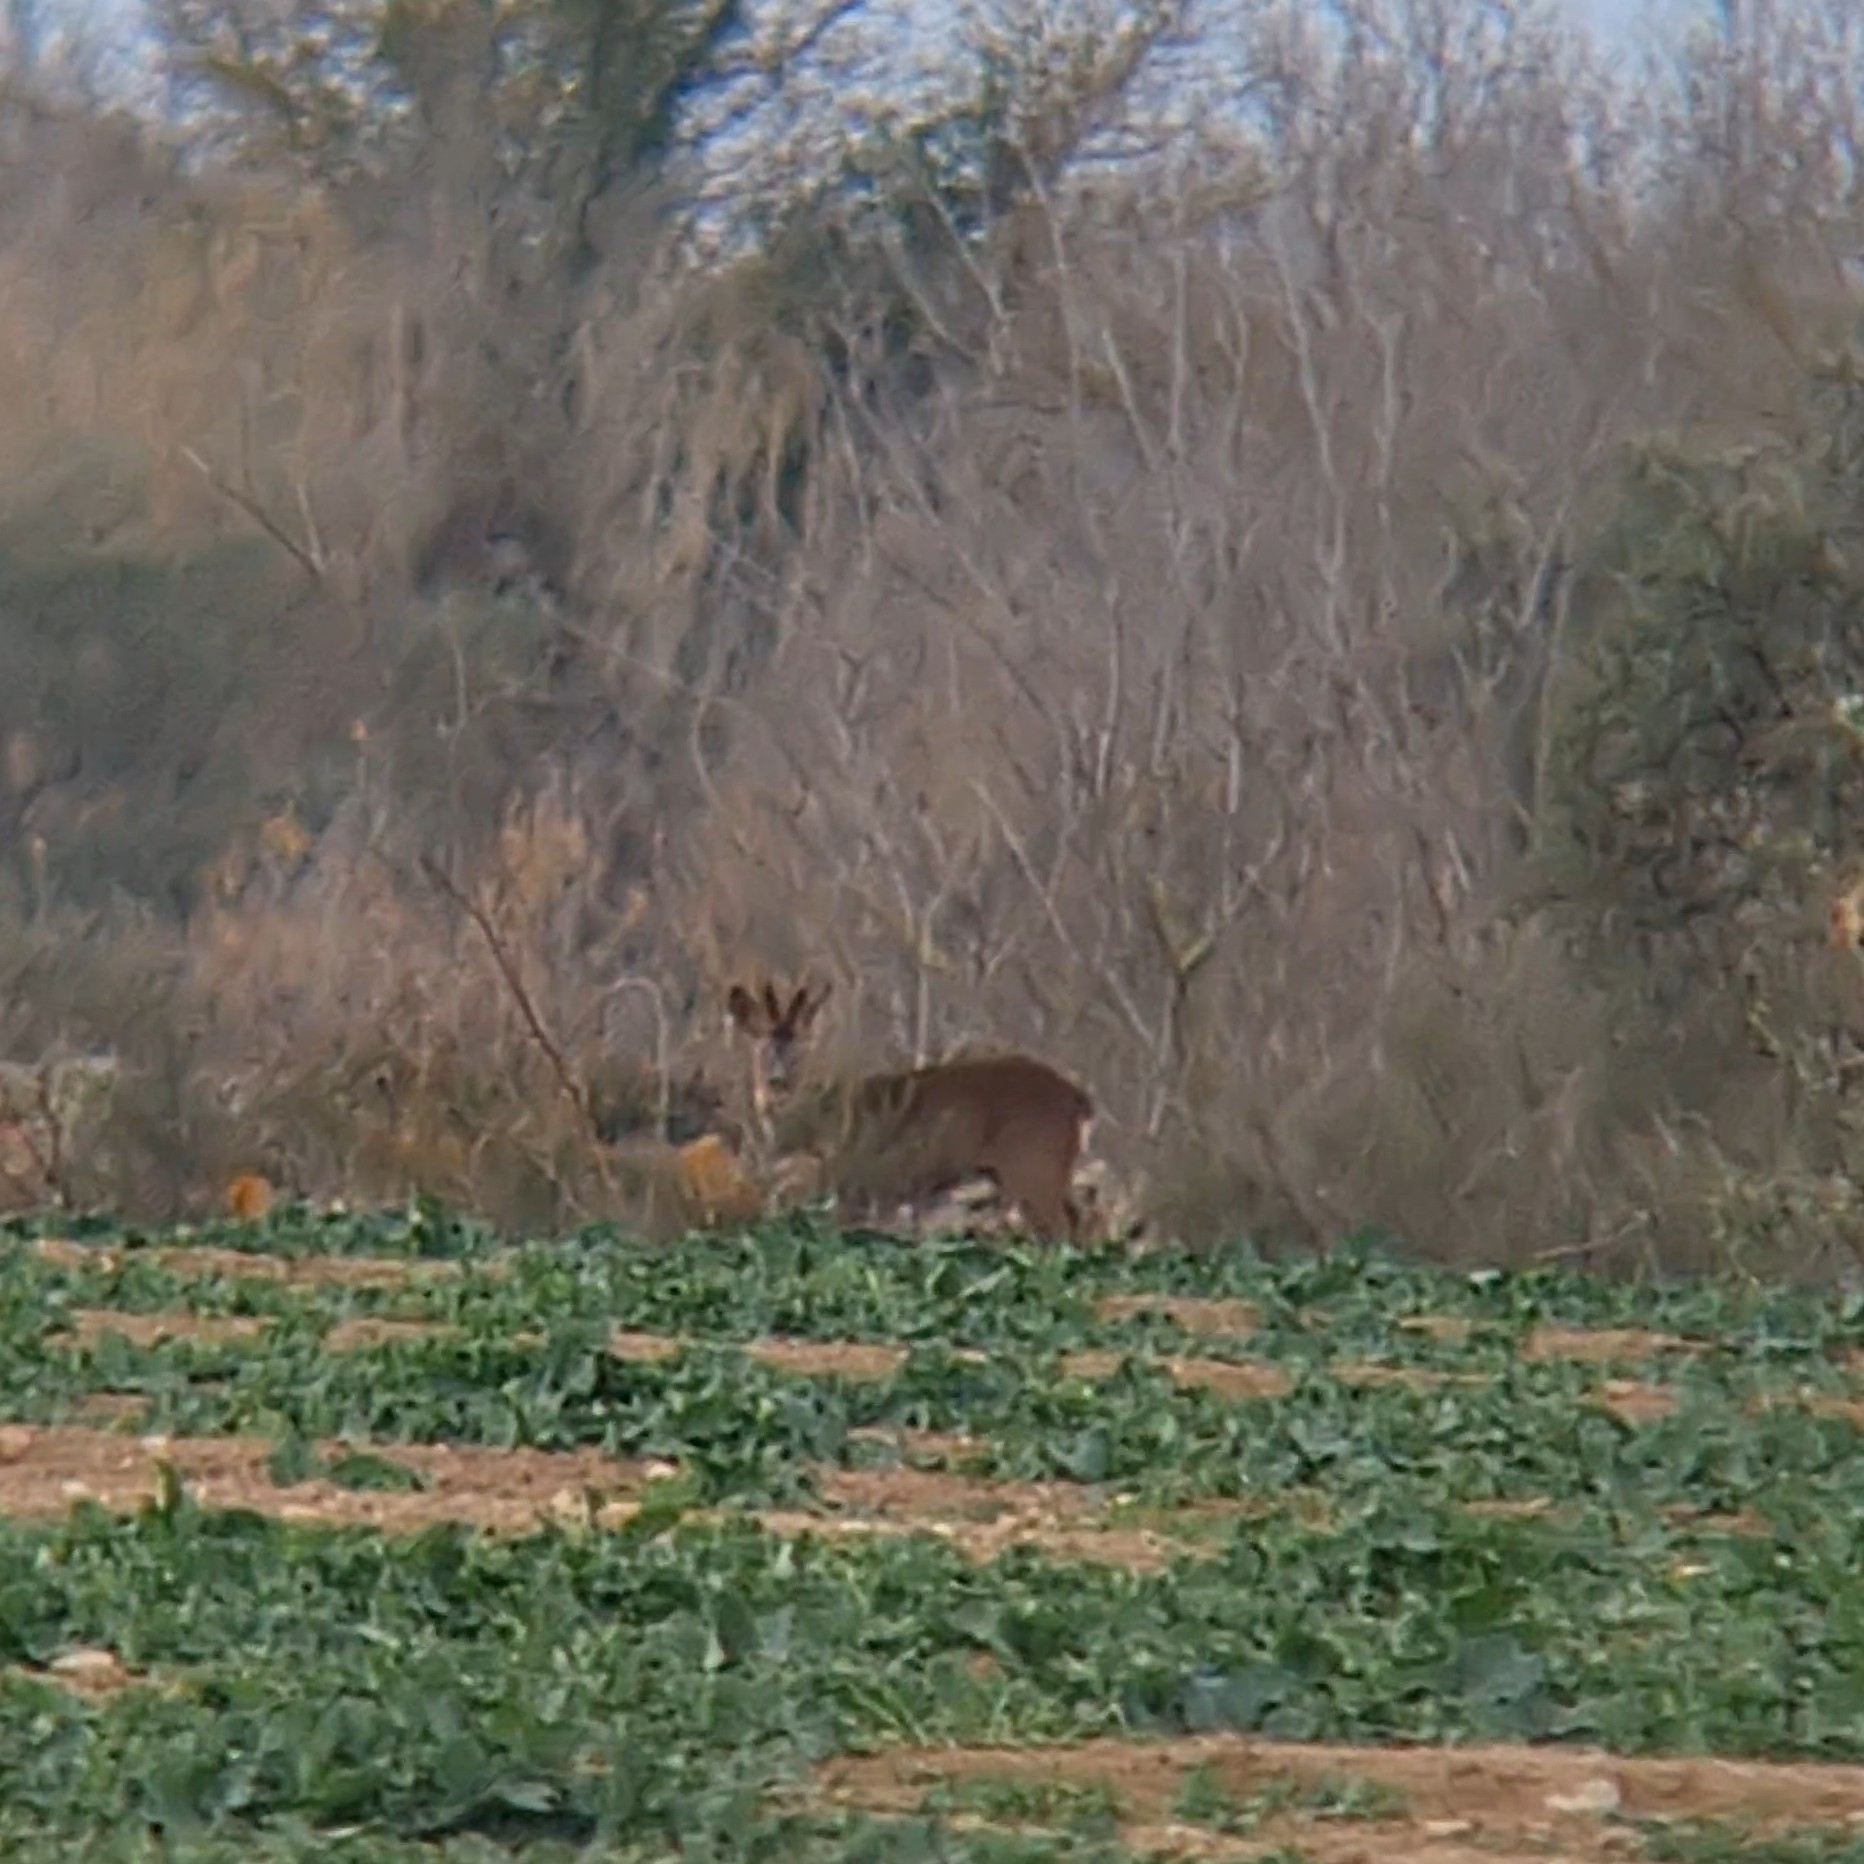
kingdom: Animalia
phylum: Chordata
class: Mammalia
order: Artiodactyla
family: Cervidae
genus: Capreolus
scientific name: Capreolus capreolus
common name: Western roe deer
